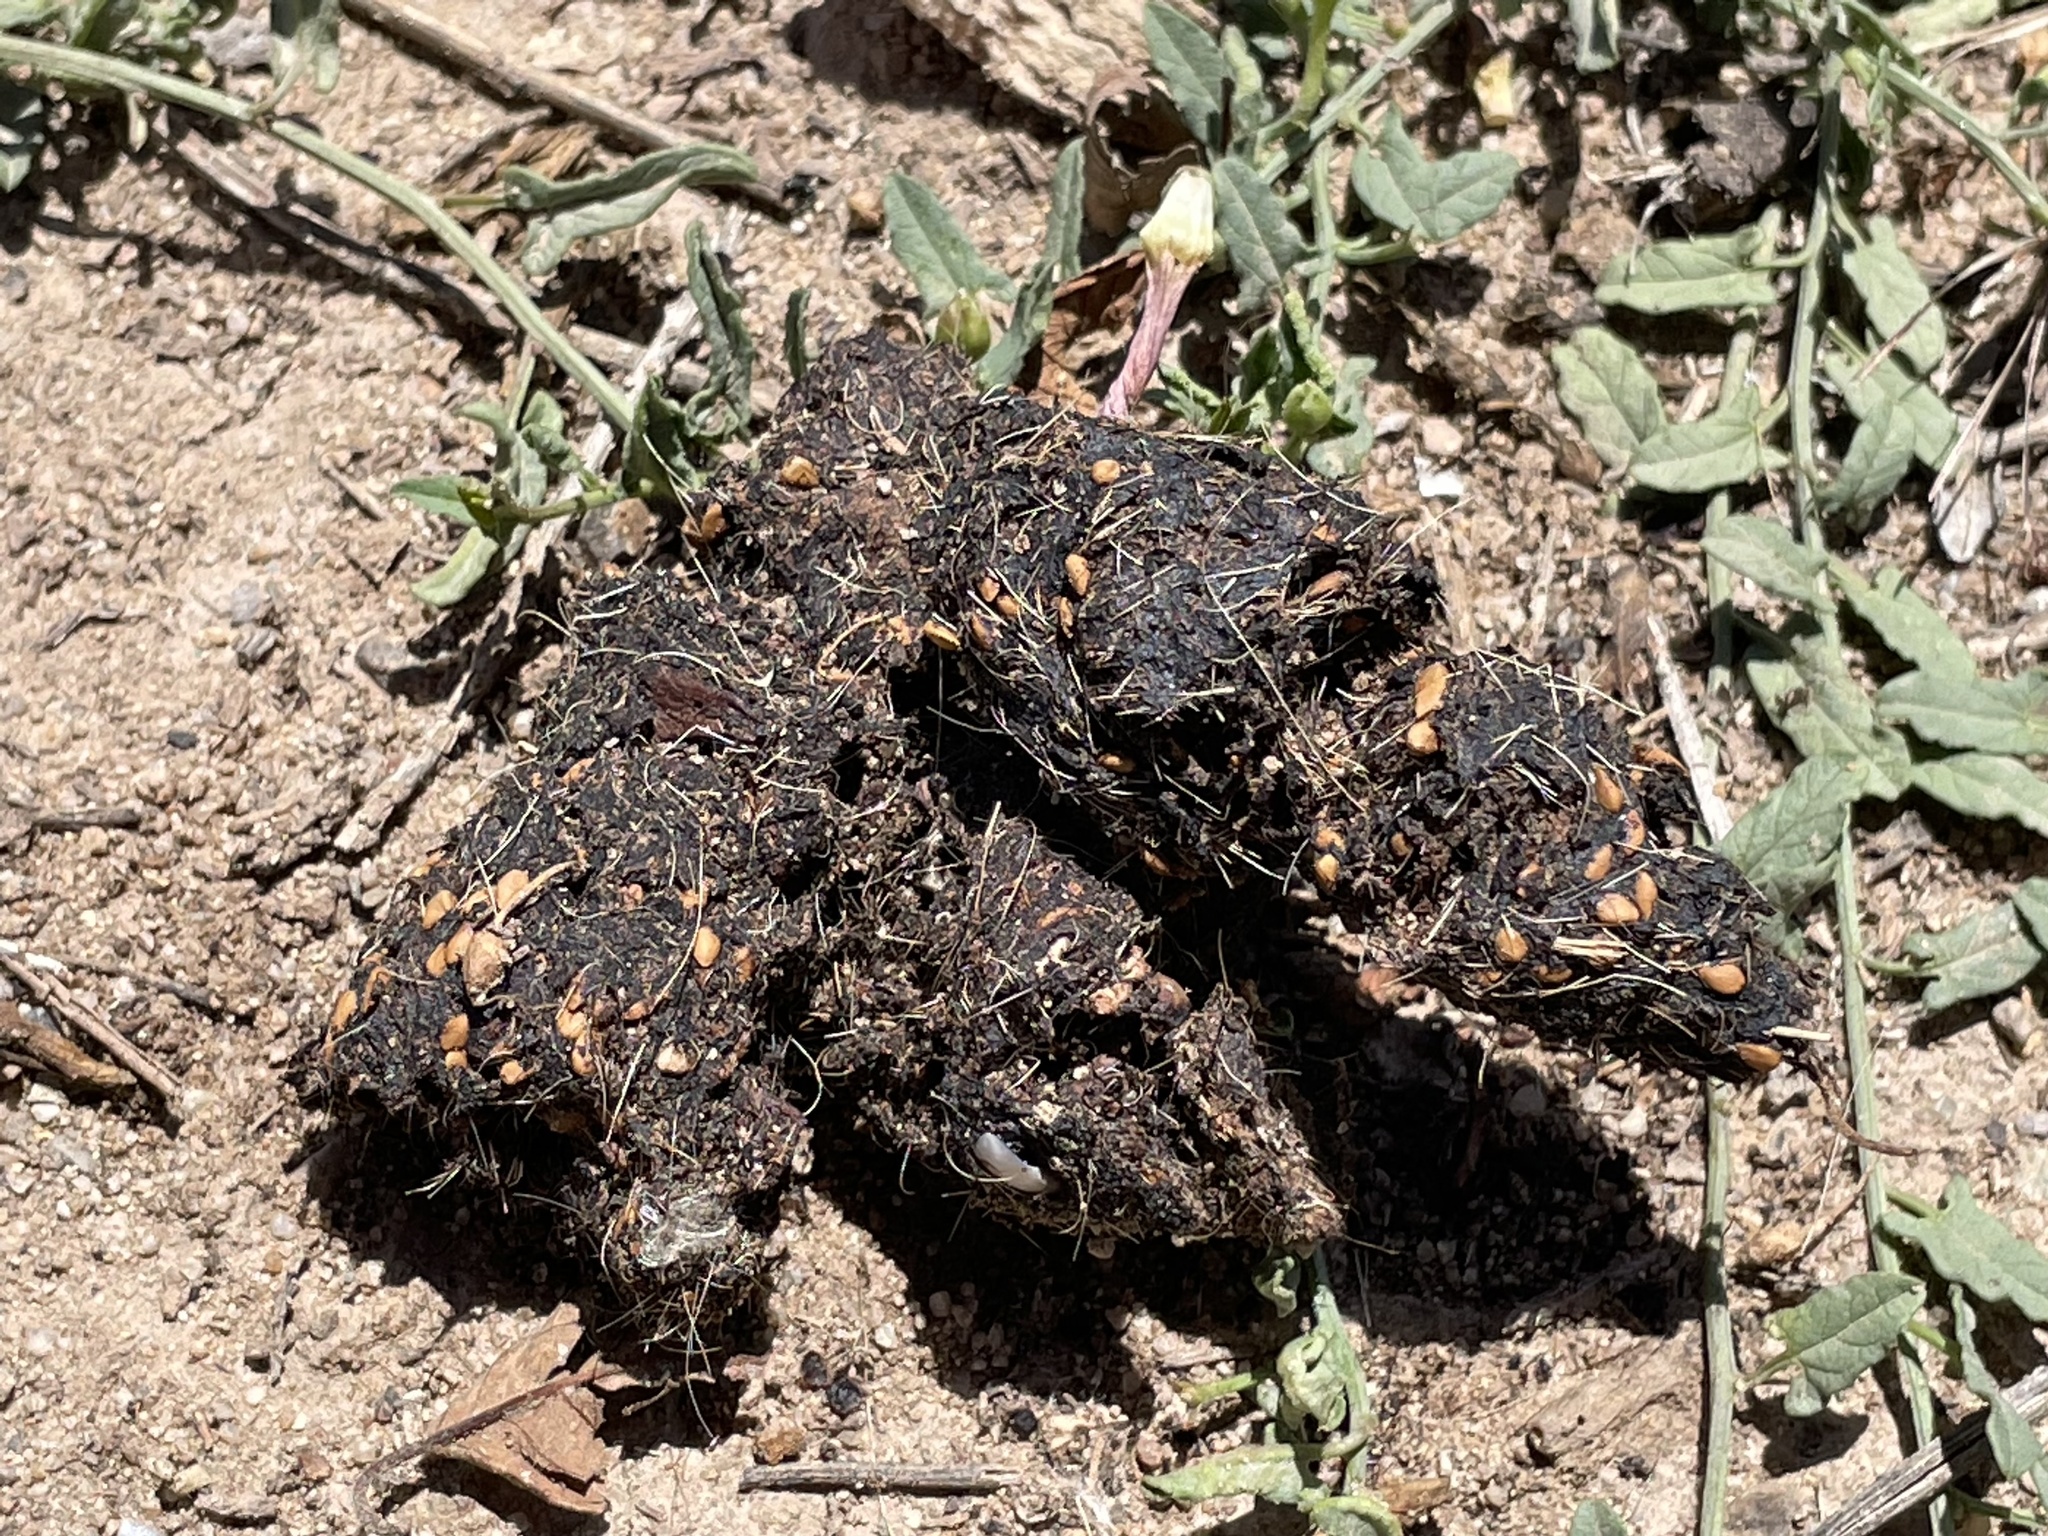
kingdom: Animalia
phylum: Chordata
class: Mammalia
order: Carnivora
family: Canidae
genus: Canis
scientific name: Canis latrans
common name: Coyote
